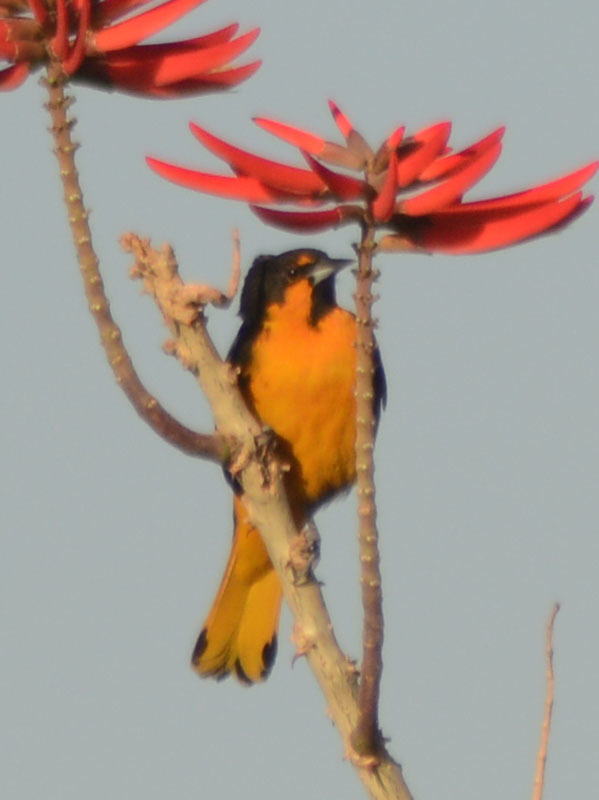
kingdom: Animalia
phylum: Chordata
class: Aves
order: Passeriformes
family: Icteridae
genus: Icterus
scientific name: Icterus abeillei
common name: Black-backed oriole
